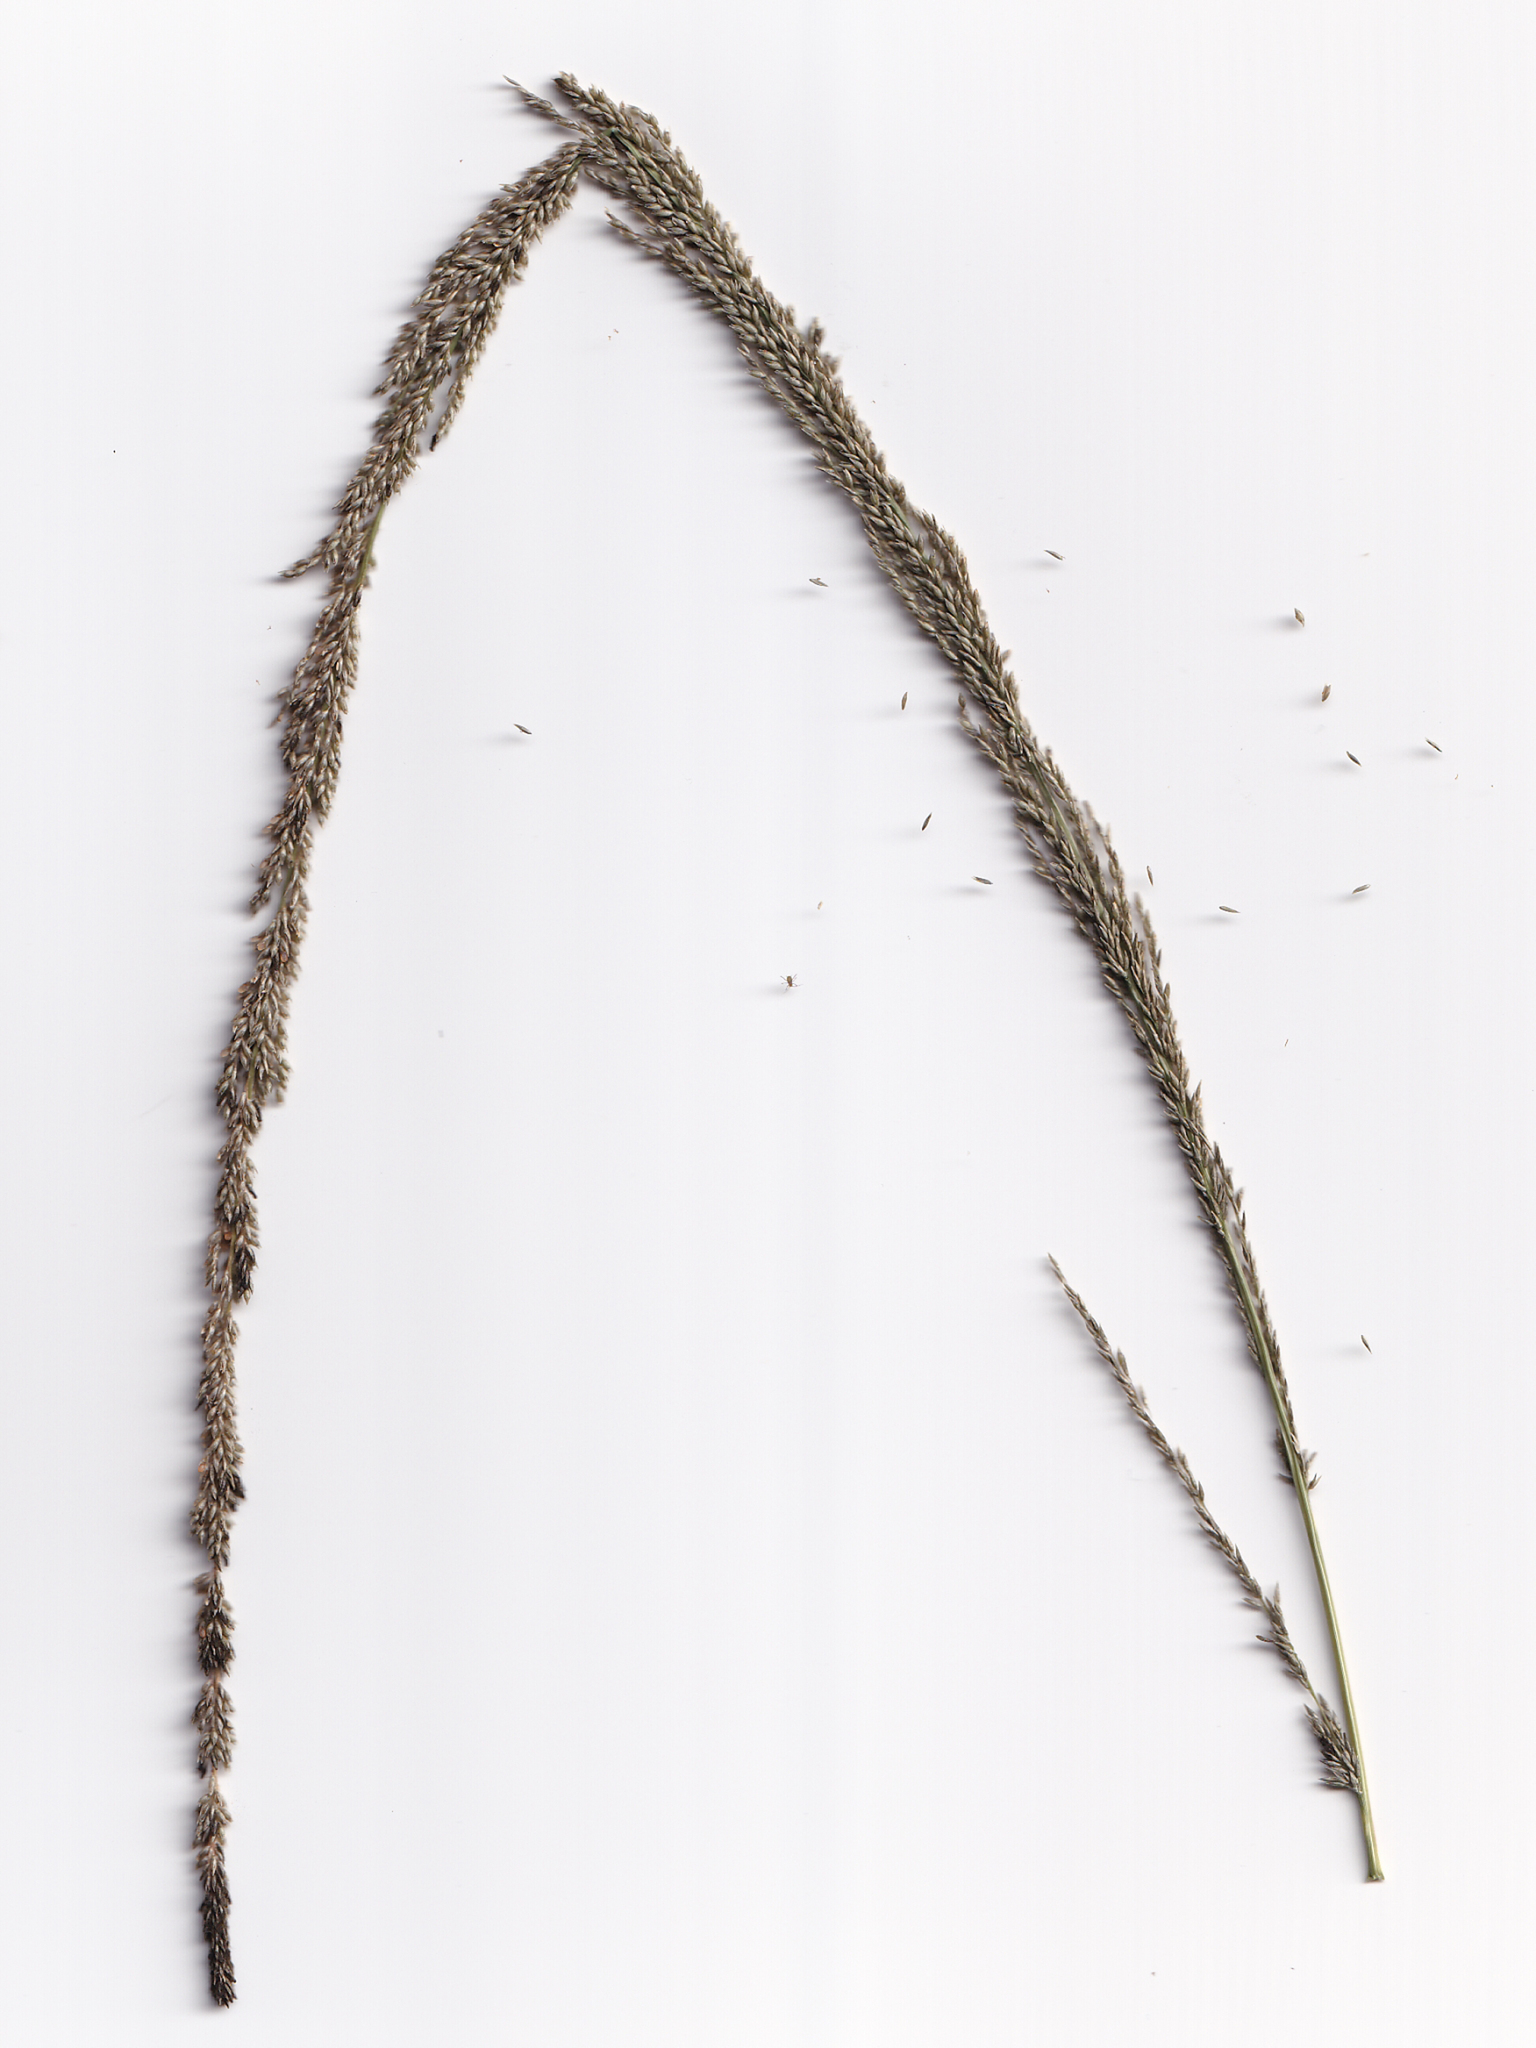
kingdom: Plantae
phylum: Tracheophyta
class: Liliopsida
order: Poales
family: Poaceae
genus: Sporobolus
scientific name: Sporobolus fertilis
